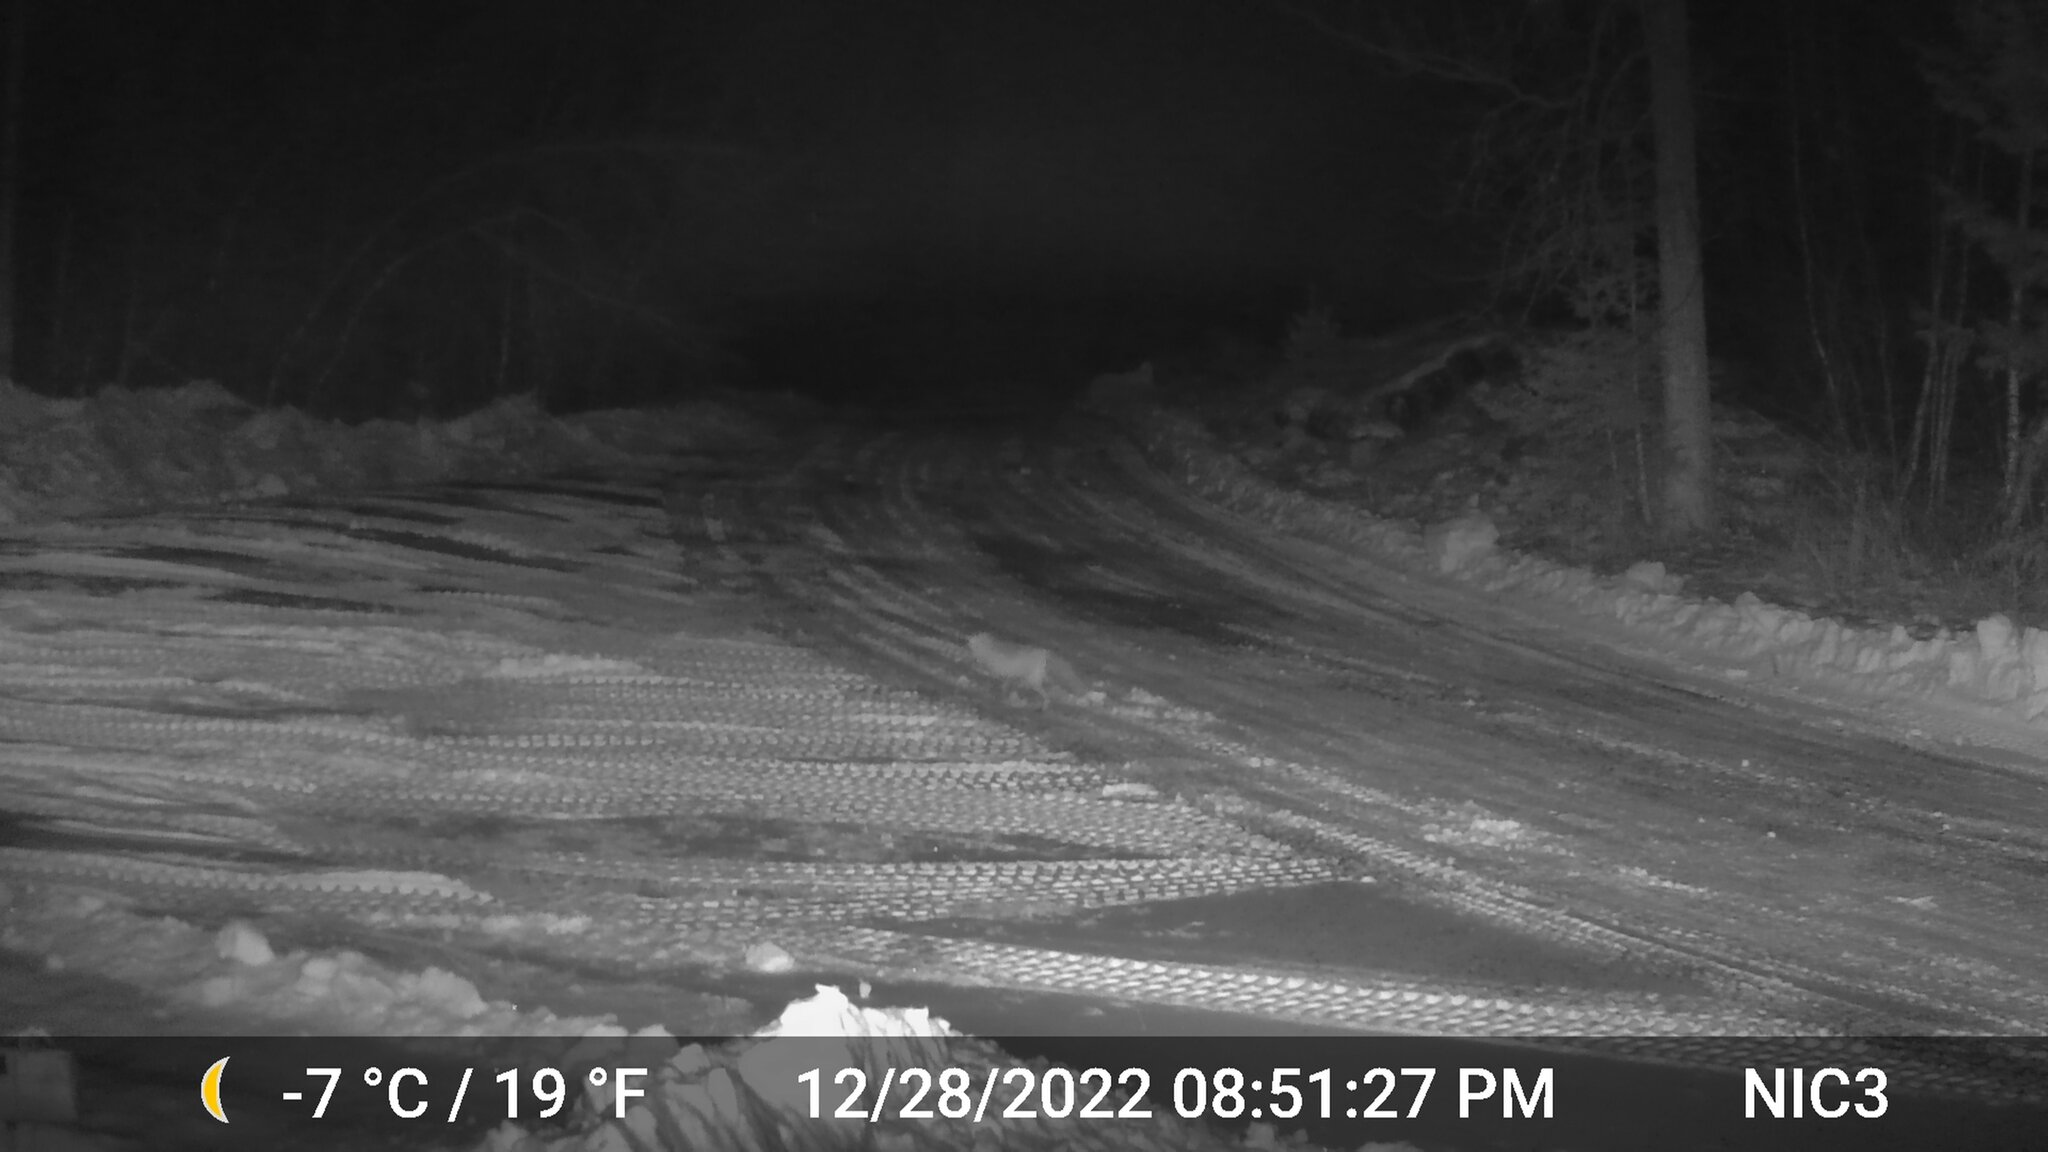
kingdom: Animalia
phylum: Chordata
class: Mammalia
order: Carnivora
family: Canidae
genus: Vulpes
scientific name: Vulpes vulpes
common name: Red fox
